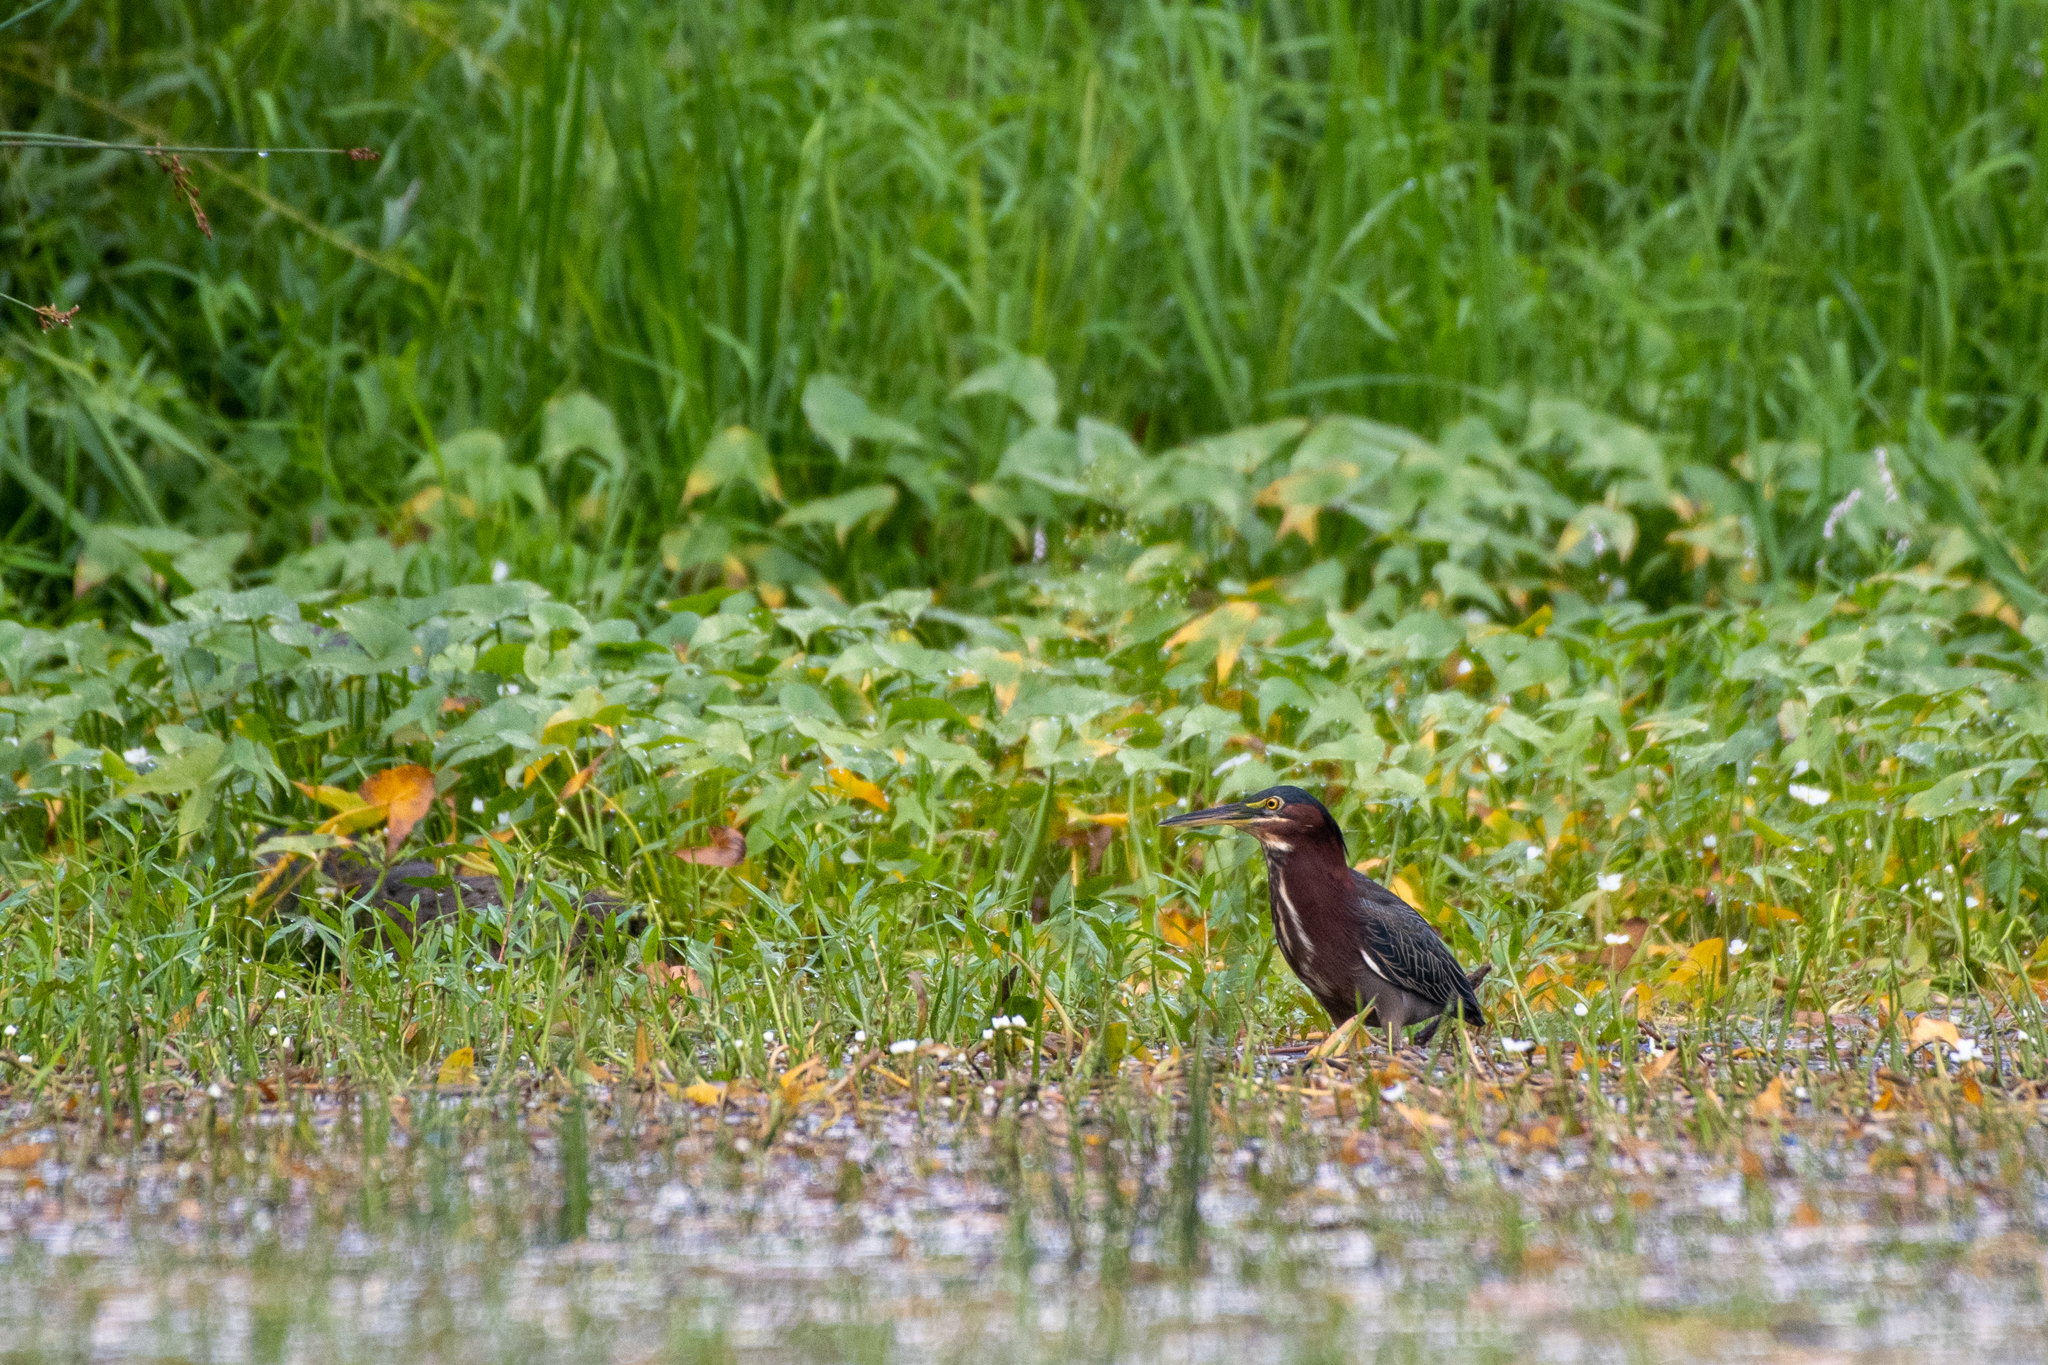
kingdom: Animalia
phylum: Chordata
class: Aves
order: Pelecaniformes
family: Ardeidae
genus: Butorides
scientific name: Butorides virescens
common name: Green heron
